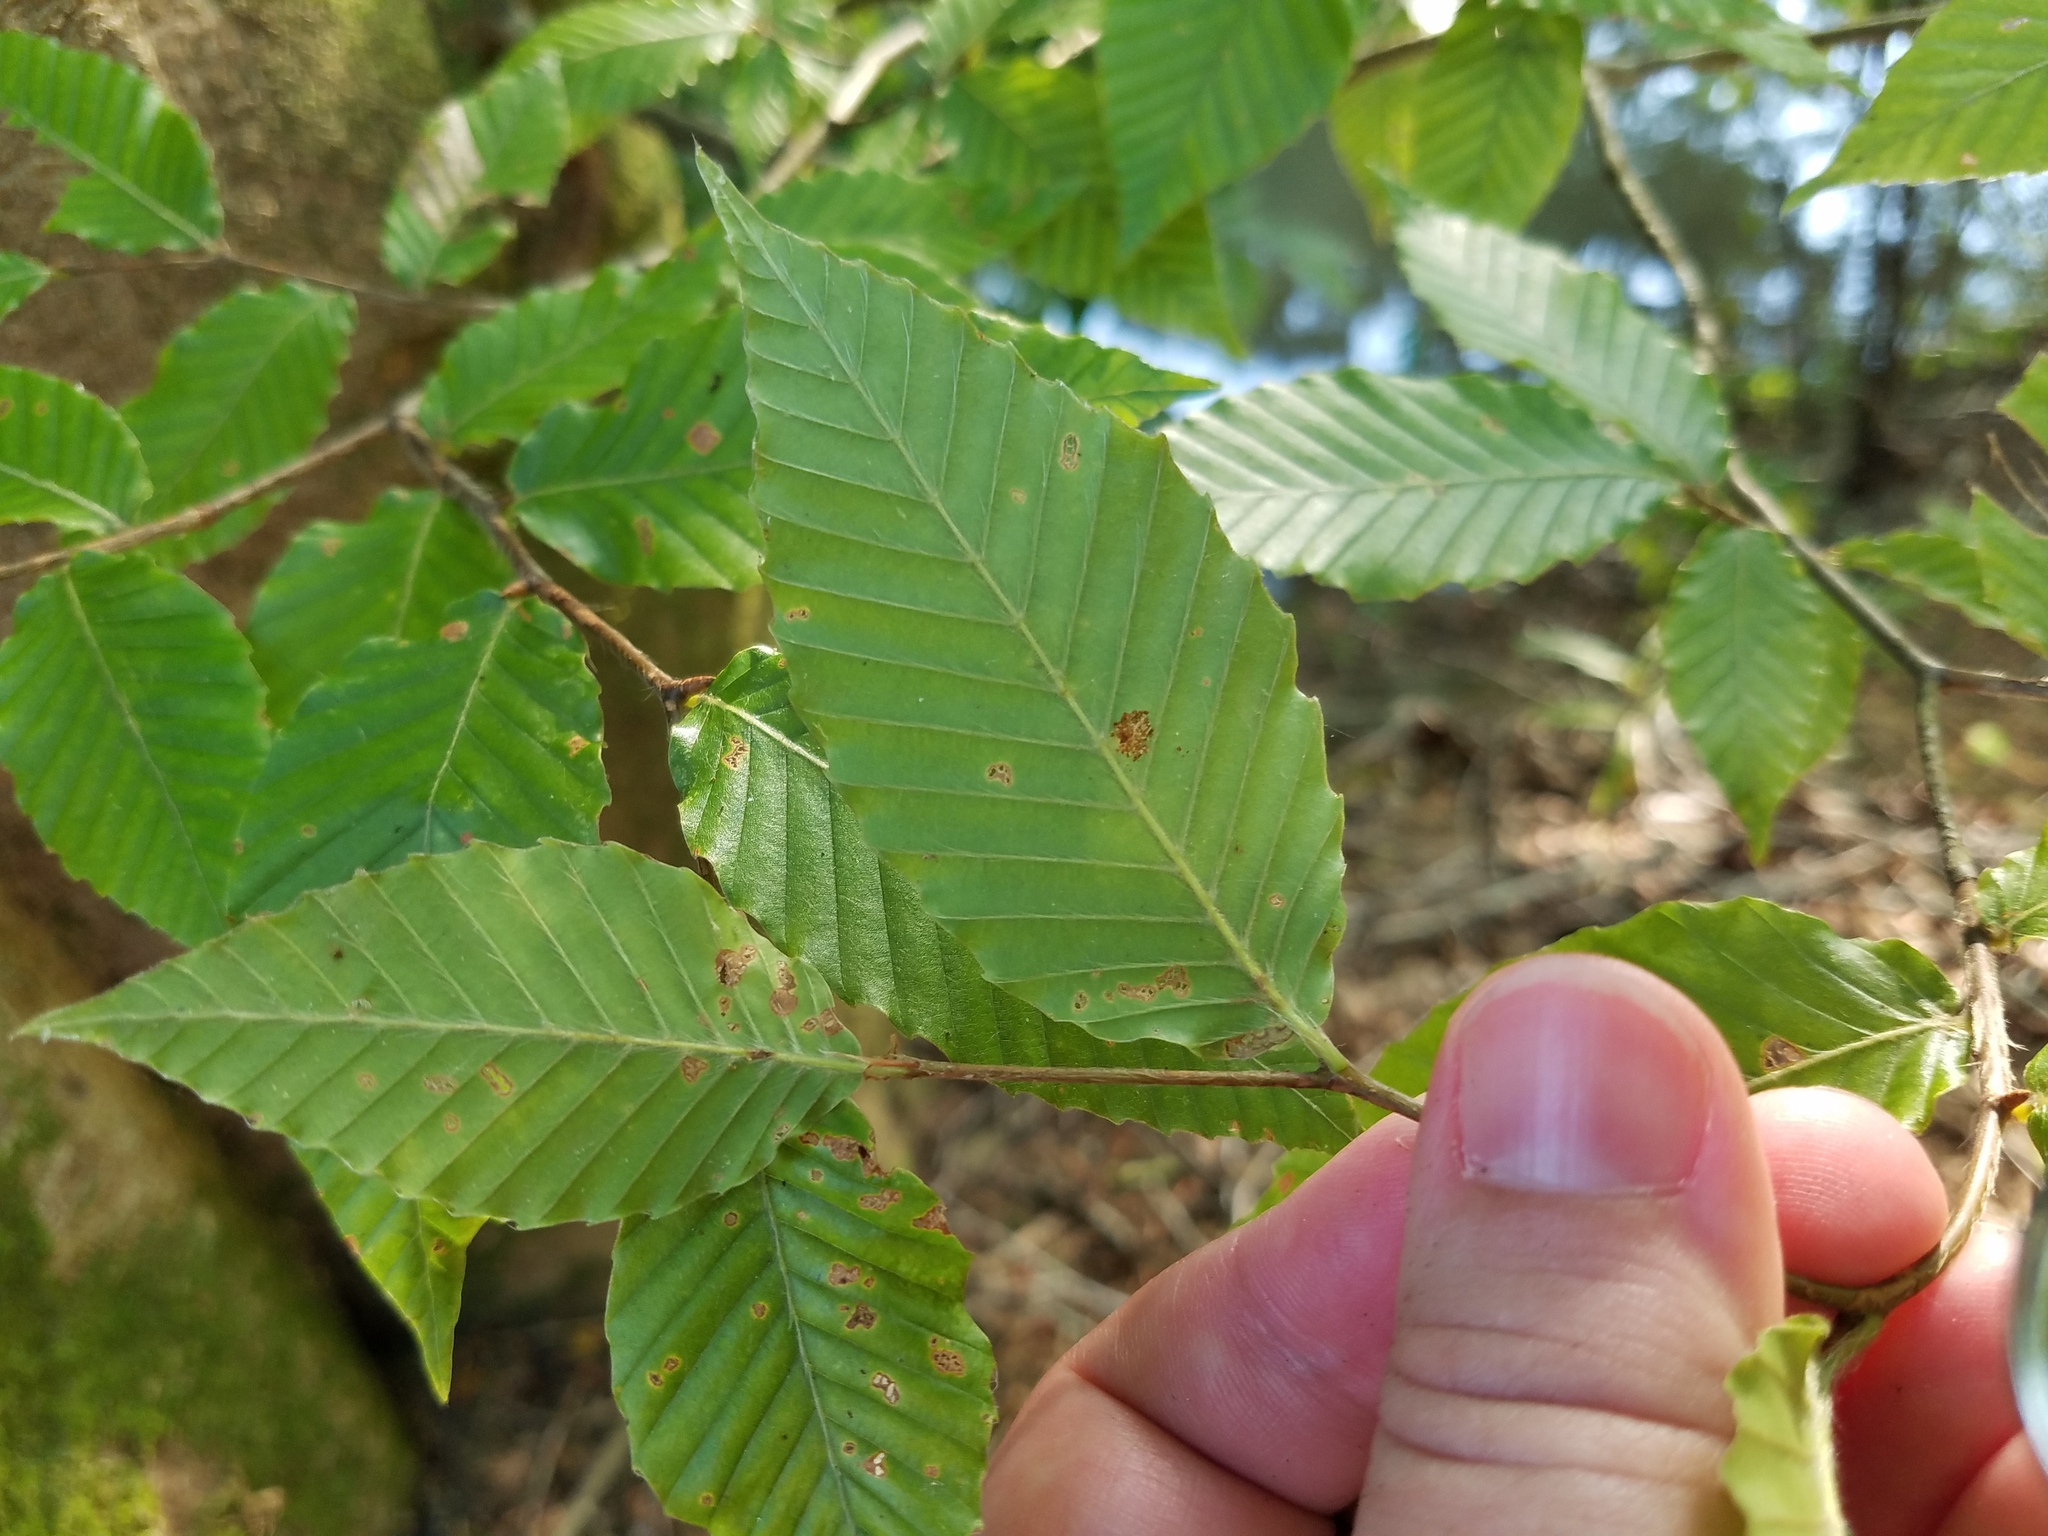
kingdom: Plantae
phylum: Tracheophyta
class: Magnoliopsida
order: Fagales
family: Fagaceae
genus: Fagus
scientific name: Fagus grandifolia
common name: American beech
